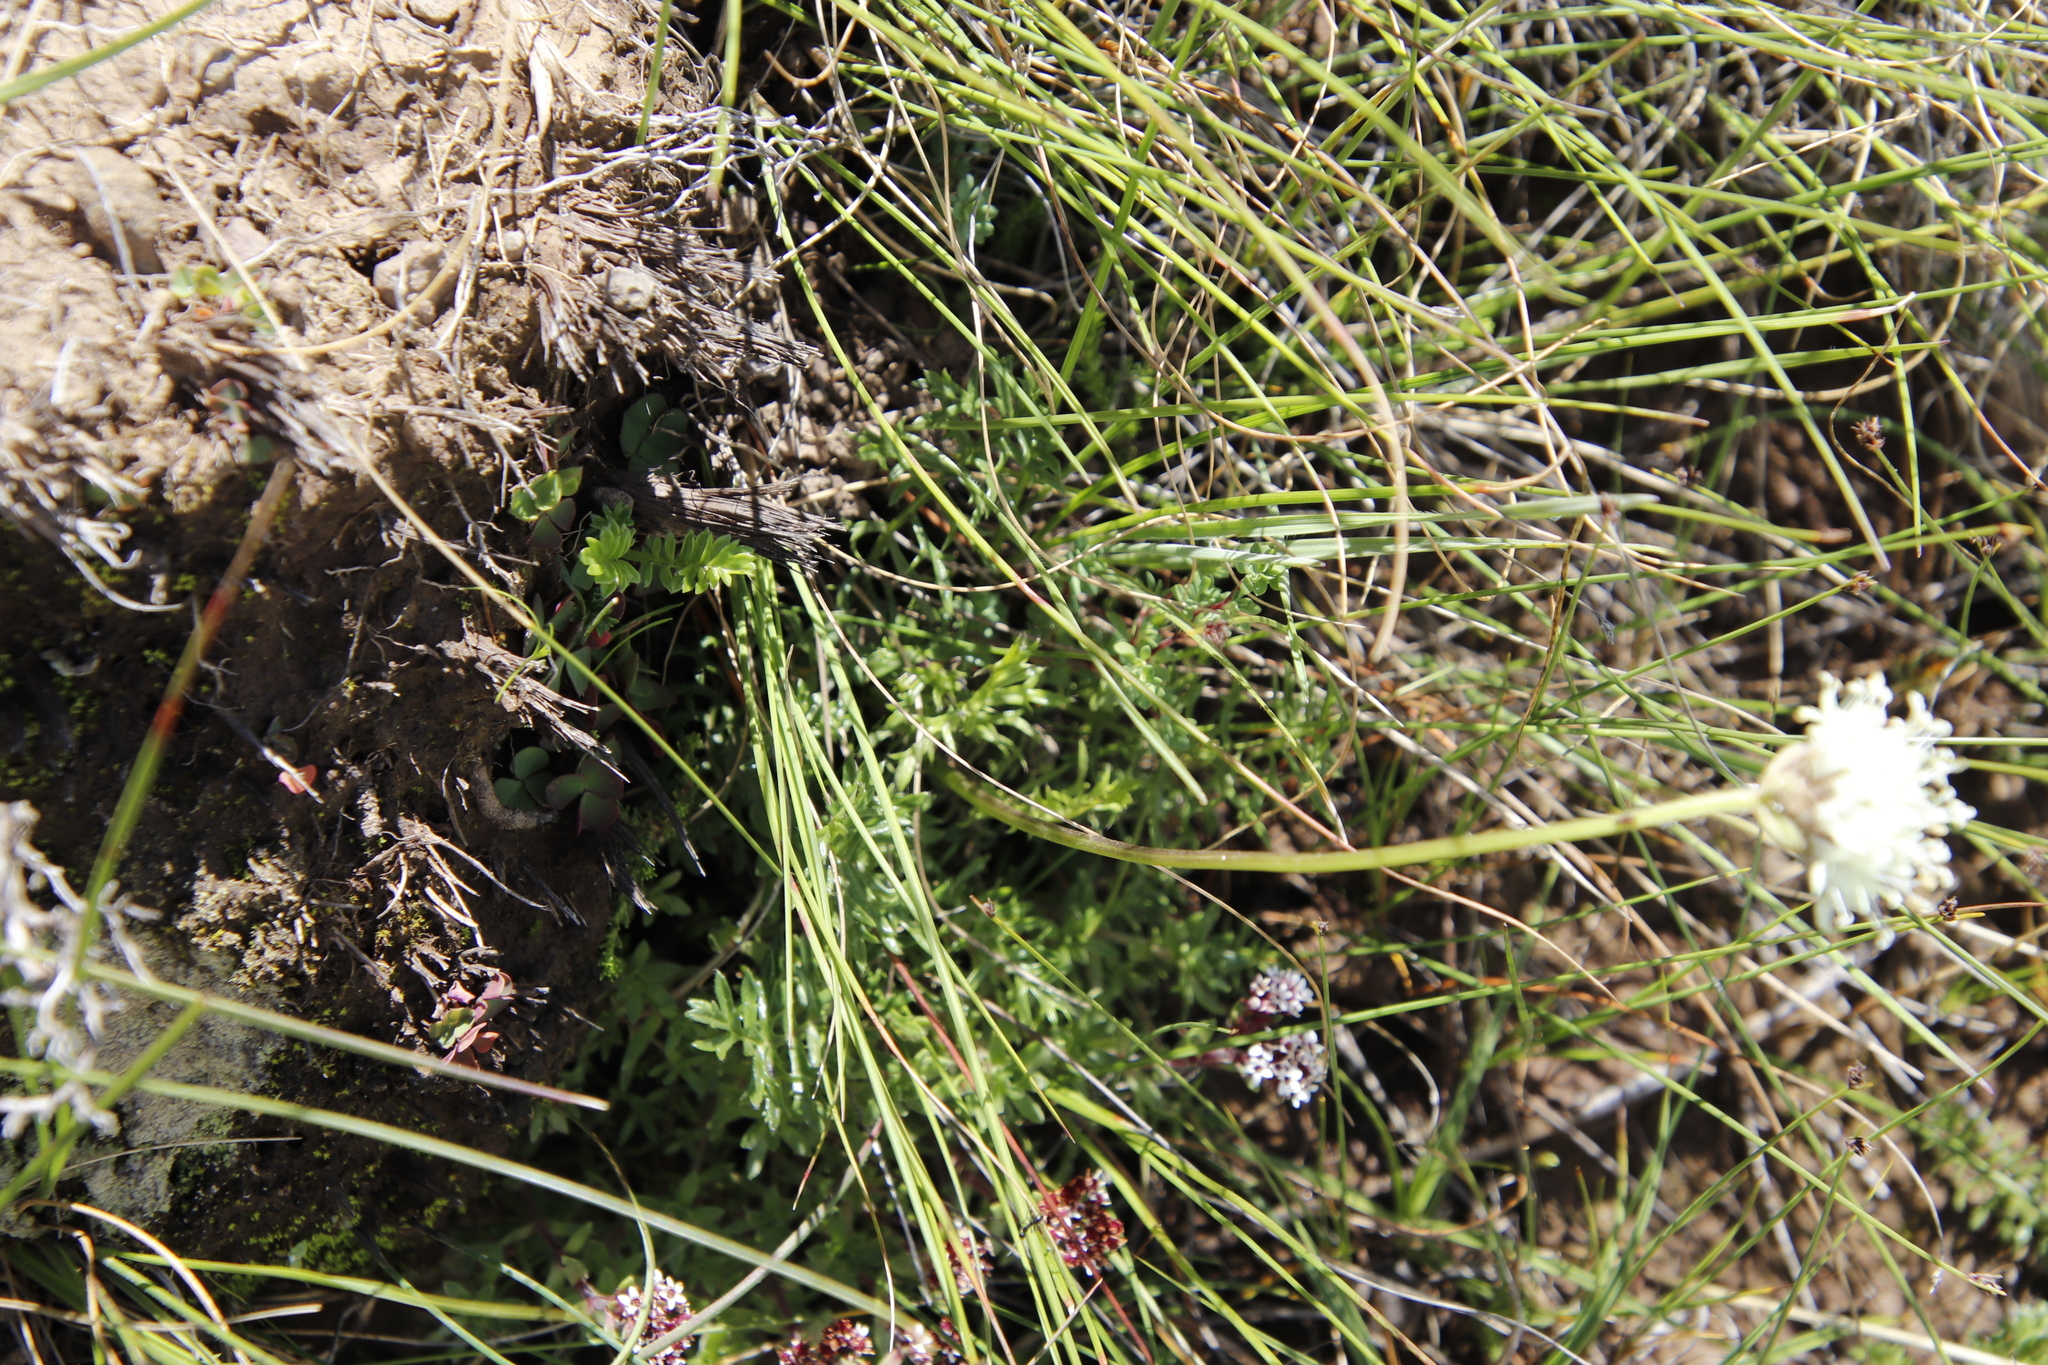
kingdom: Plantae
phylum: Tracheophyta
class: Magnoliopsida
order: Dipsacales
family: Caprifoliaceae
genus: Cephalaria
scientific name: Cephalaria galpiniana
